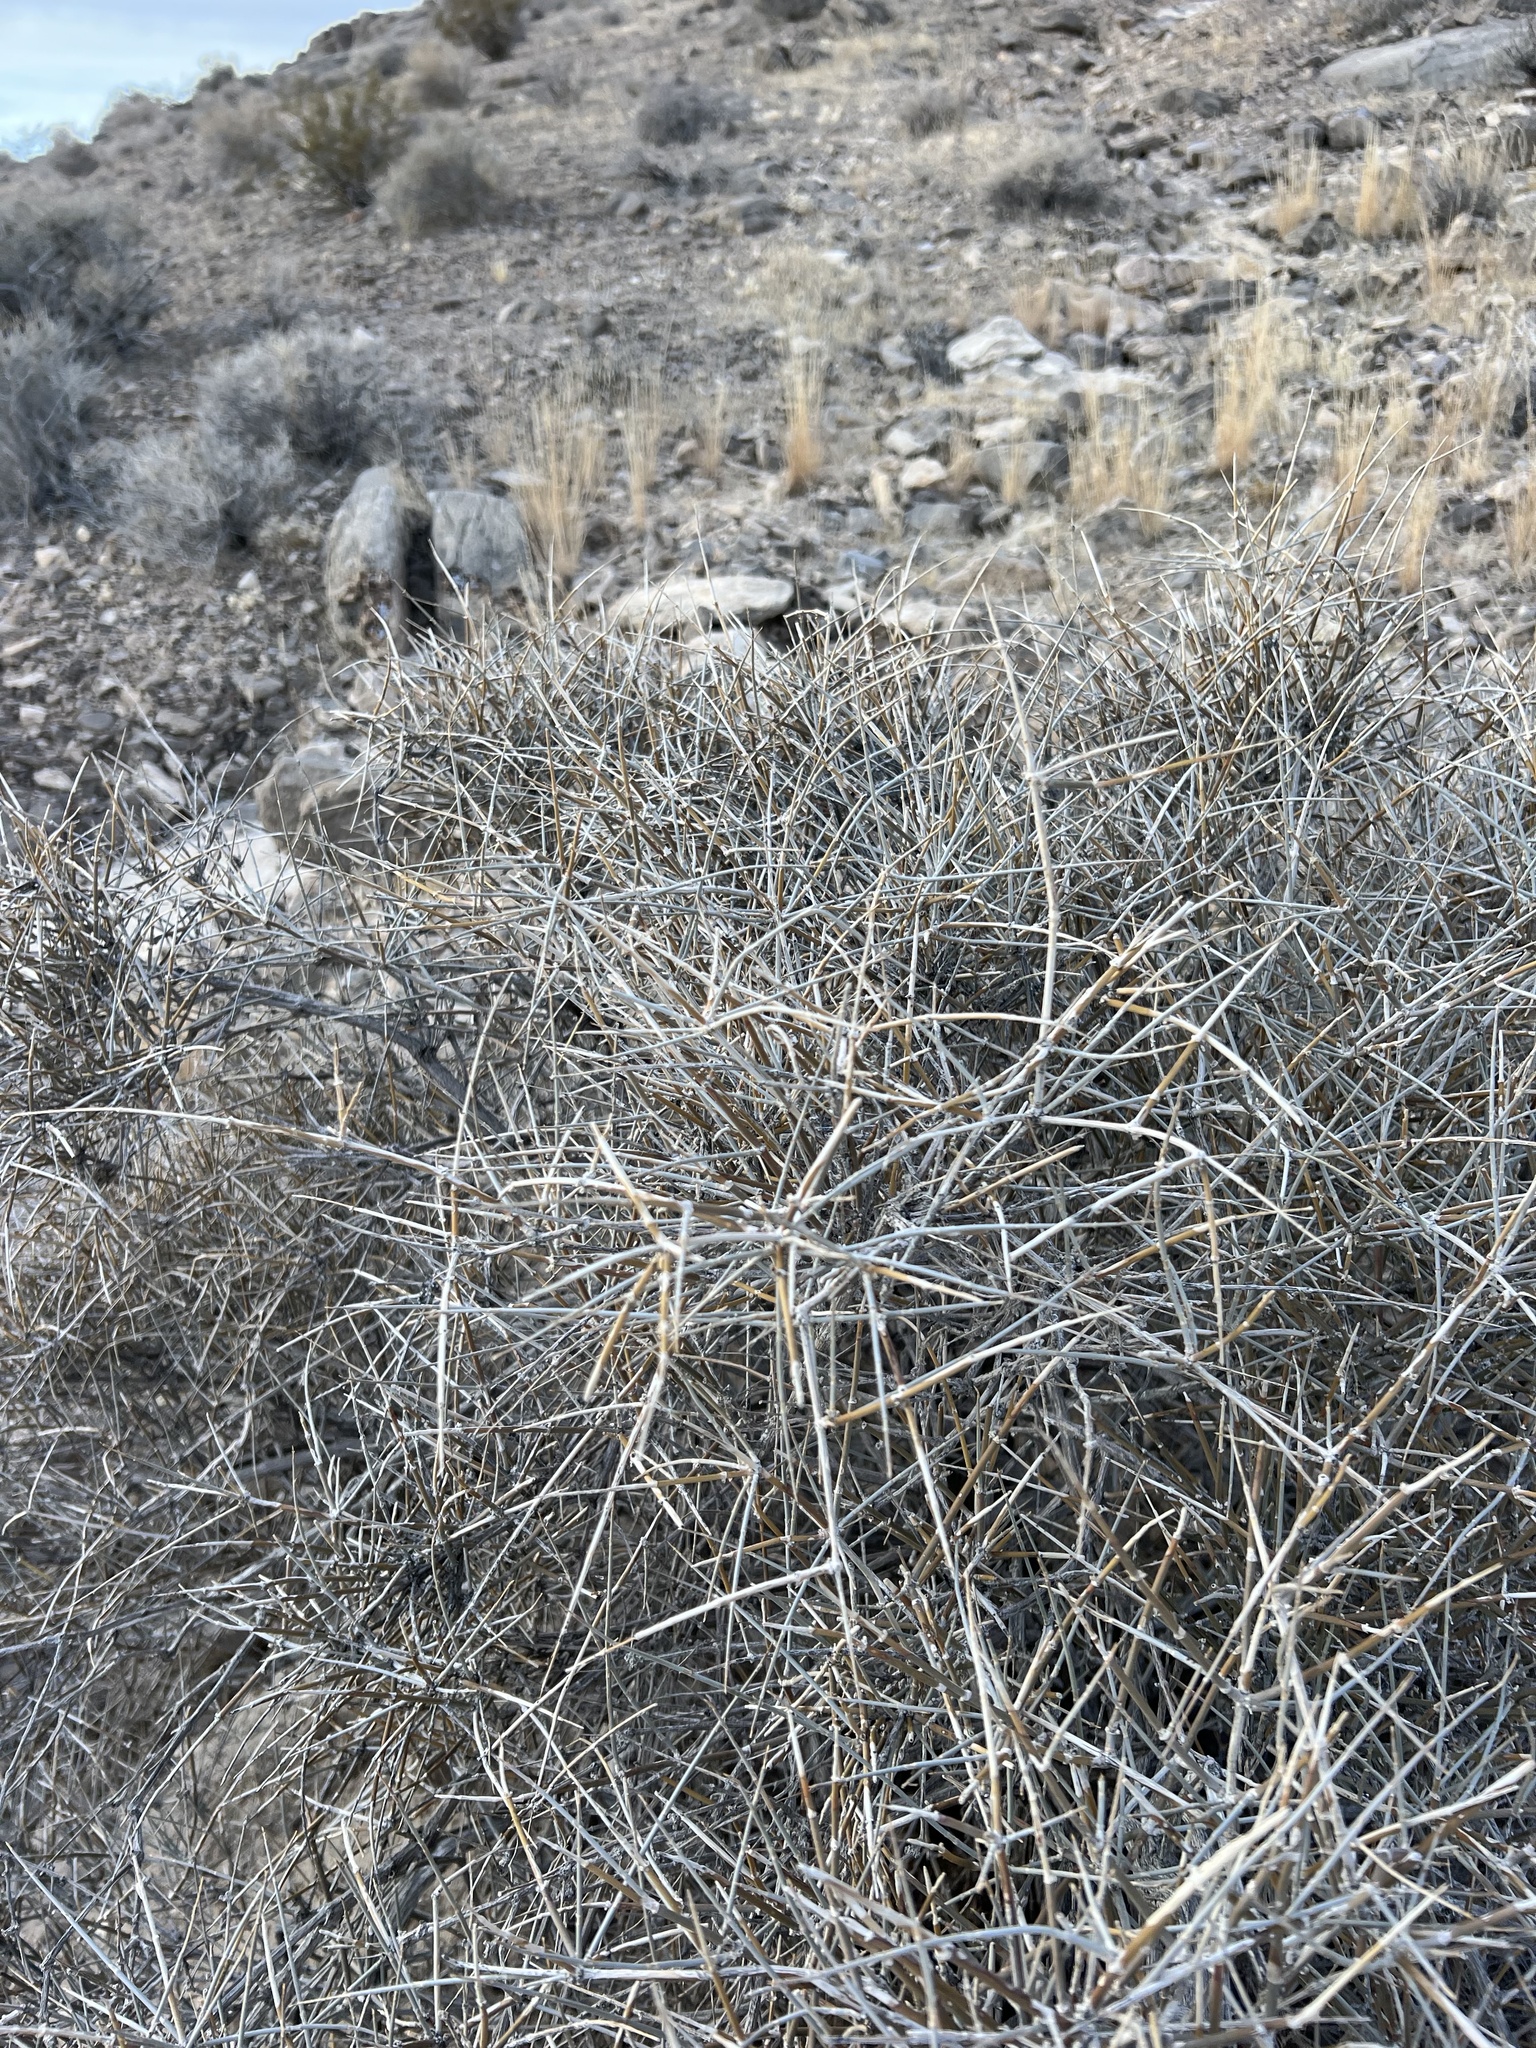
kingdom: Plantae
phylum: Tracheophyta
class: Gnetopsida
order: Ephedrales
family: Ephedraceae
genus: Ephedra
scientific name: Ephedra nevadensis
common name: Gray ephedra
